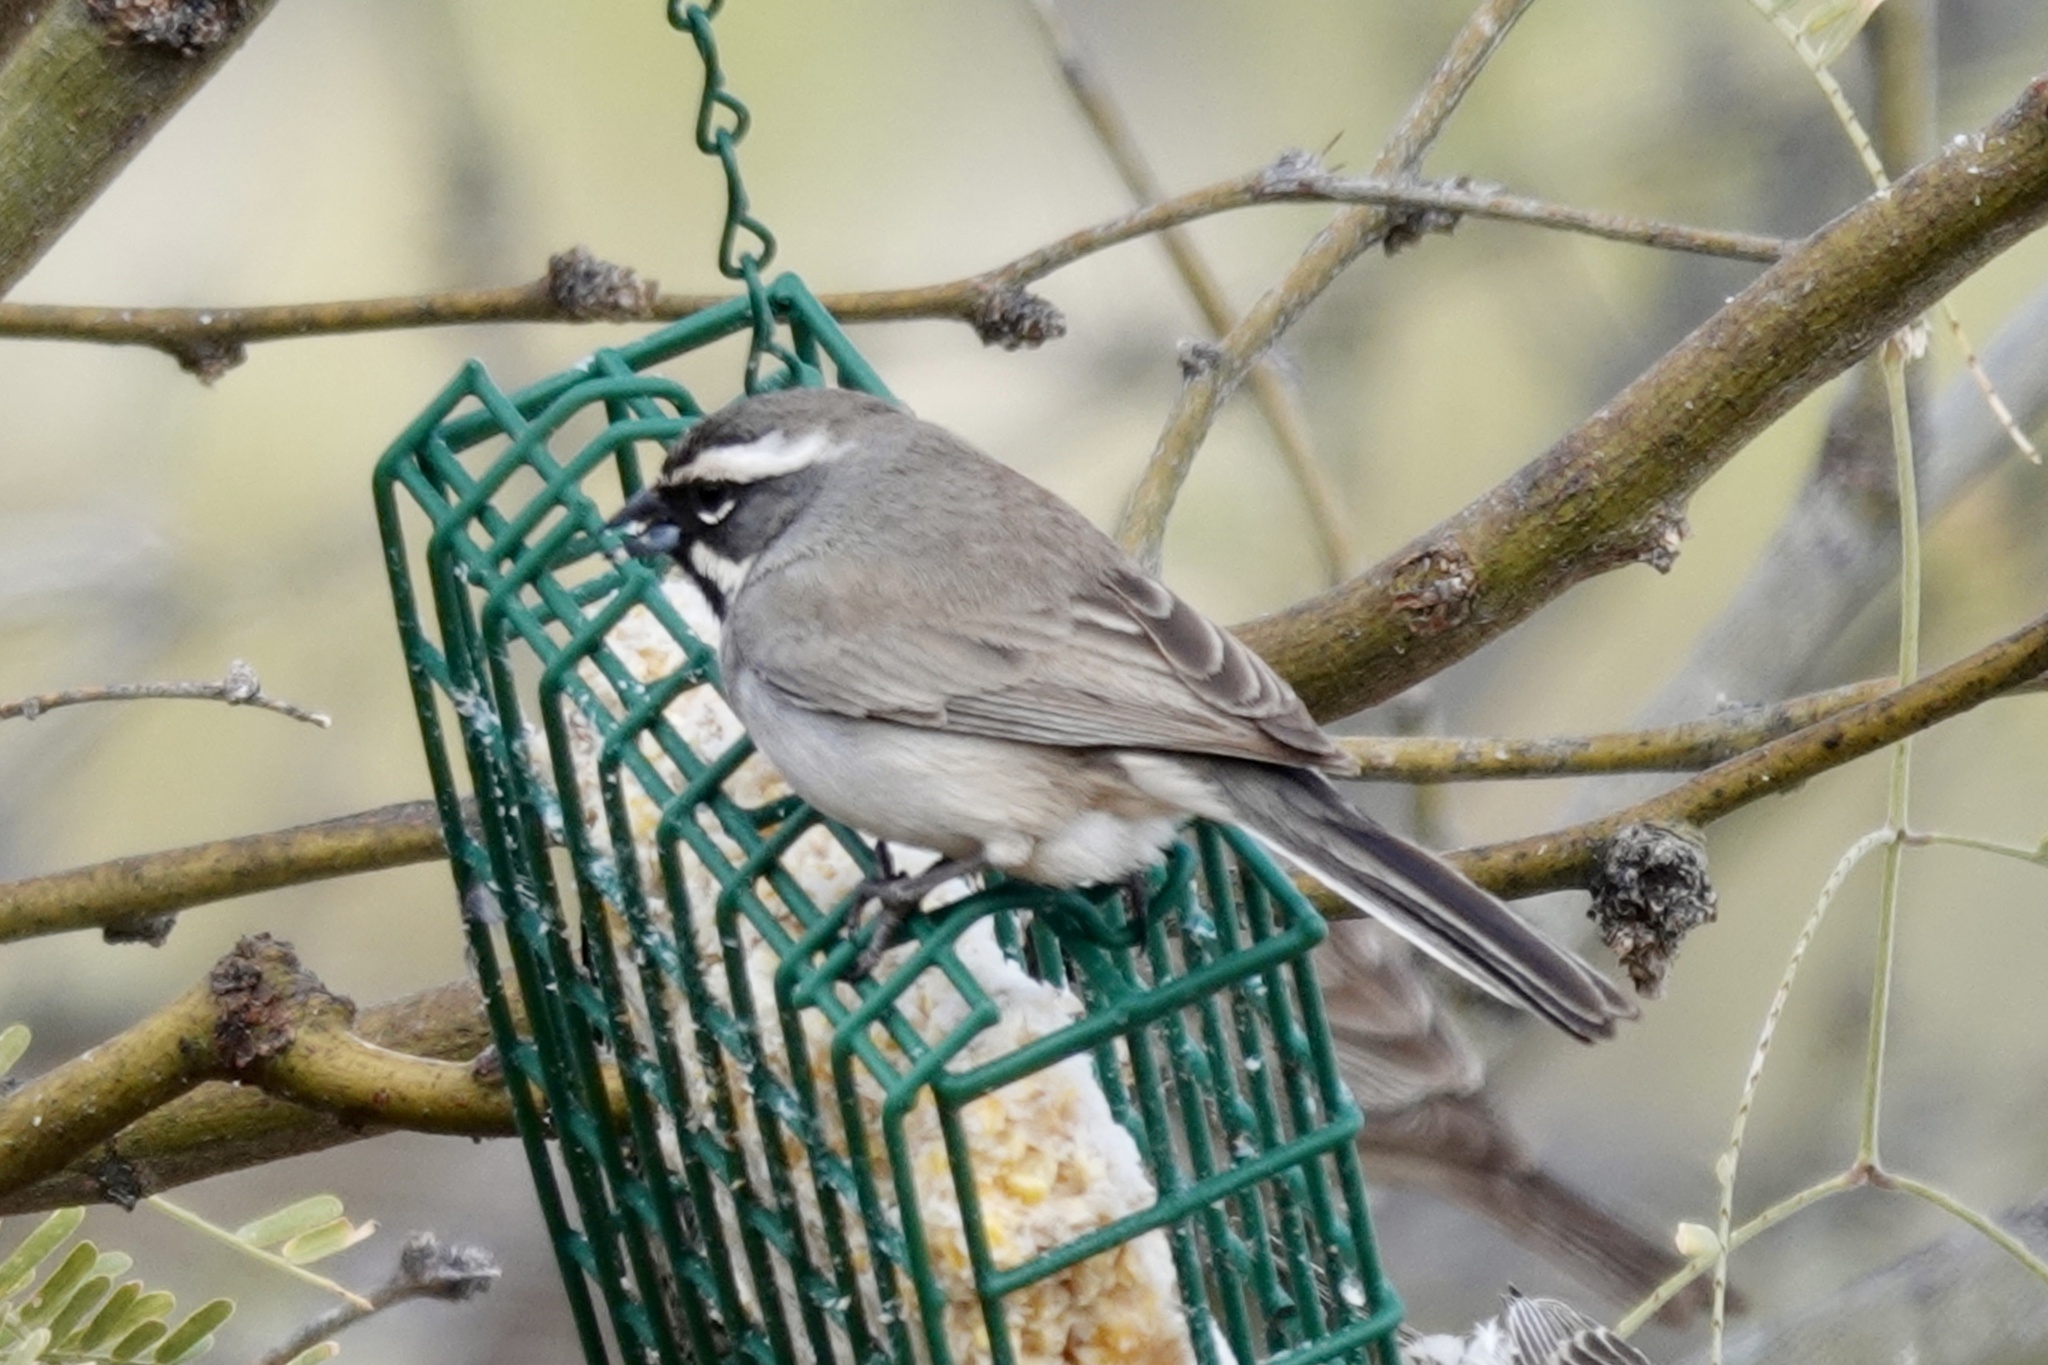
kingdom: Animalia
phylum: Chordata
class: Aves
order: Passeriformes
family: Passerellidae
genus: Amphispiza
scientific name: Amphispiza bilineata
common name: Black-throated sparrow
